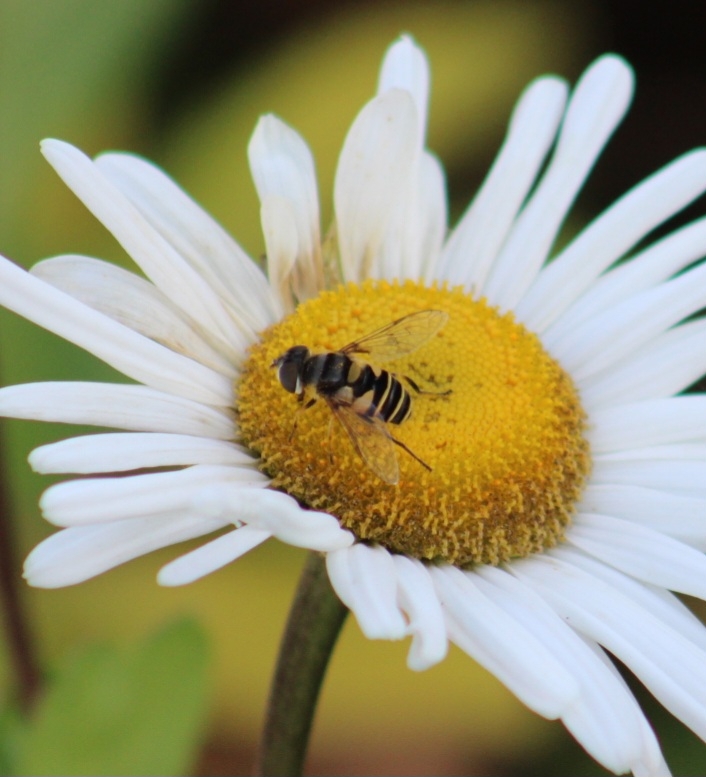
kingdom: Animalia
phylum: Arthropoda
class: Insecta
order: Diptera
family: Syrphidae
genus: Eristalis
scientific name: Eristalis transversa
